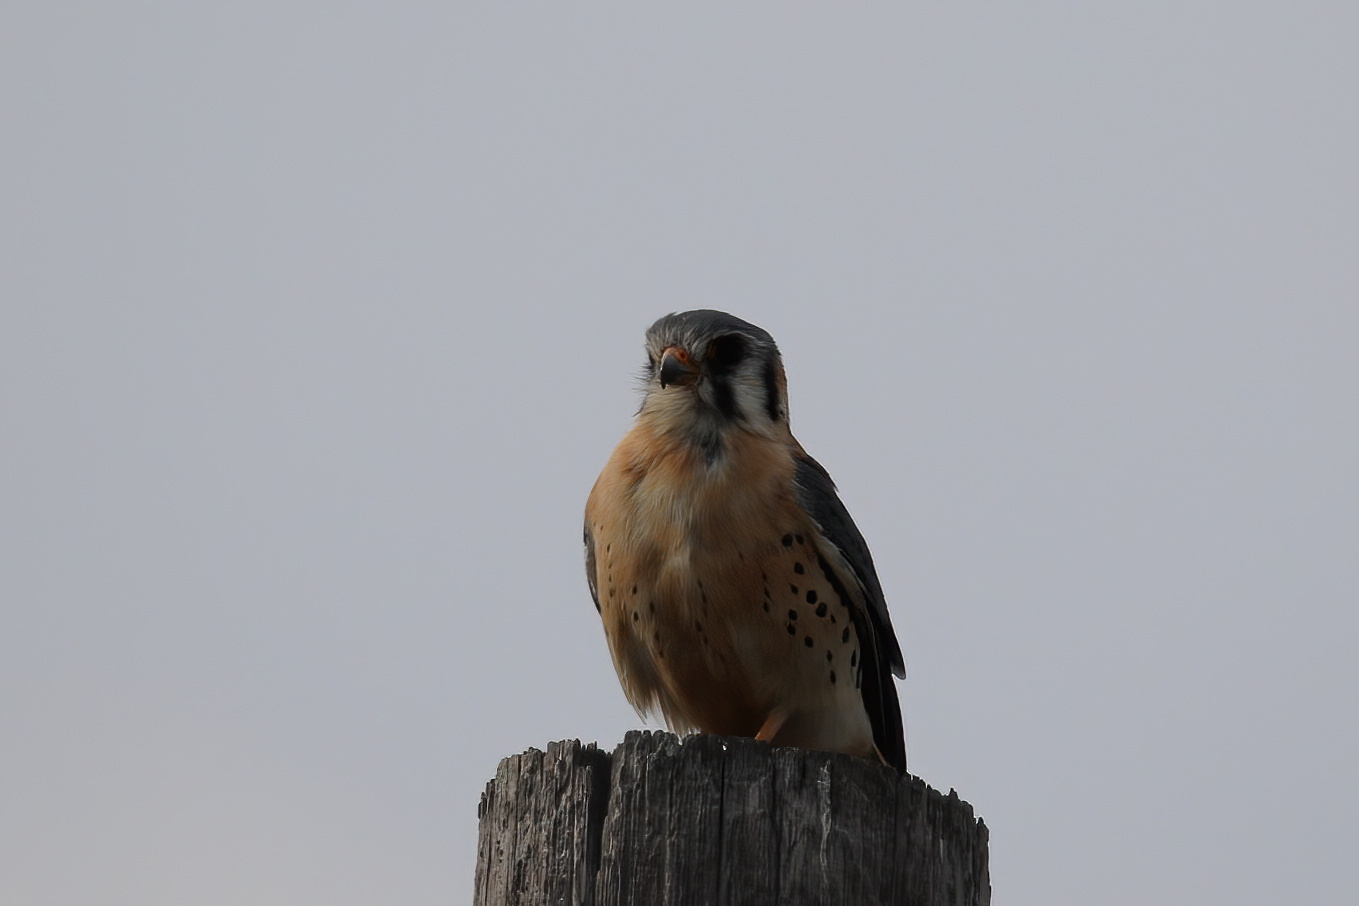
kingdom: Animalia
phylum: Chordata
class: Aves
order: Falconiformes
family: Falconidae
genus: Falco
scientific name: Falco sparverius
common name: American kestrel
